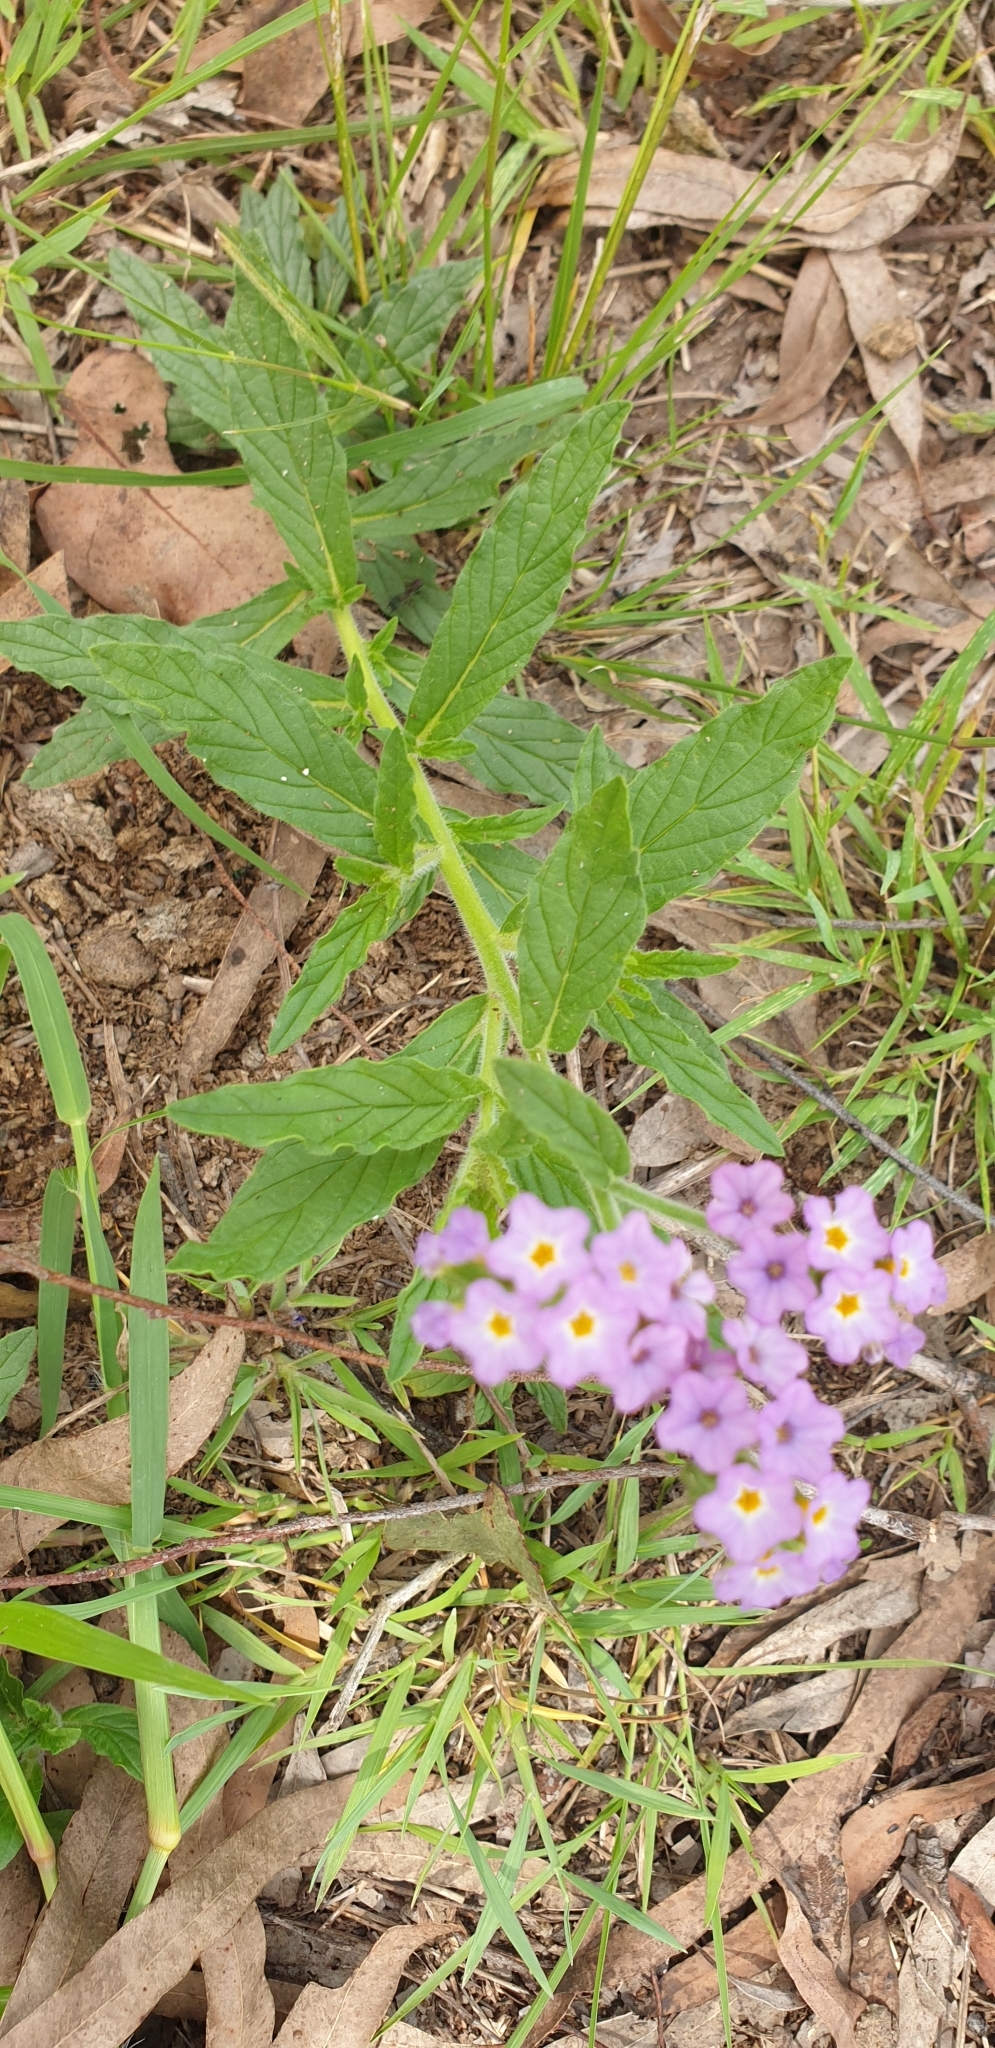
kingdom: Plantae
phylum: Tracheophyta
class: Magnoliopsida
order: Boraginales
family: Heliotropiaceae
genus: Heliotropium
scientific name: Heliotropium amplexicaule
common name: Clasping heliotrope
